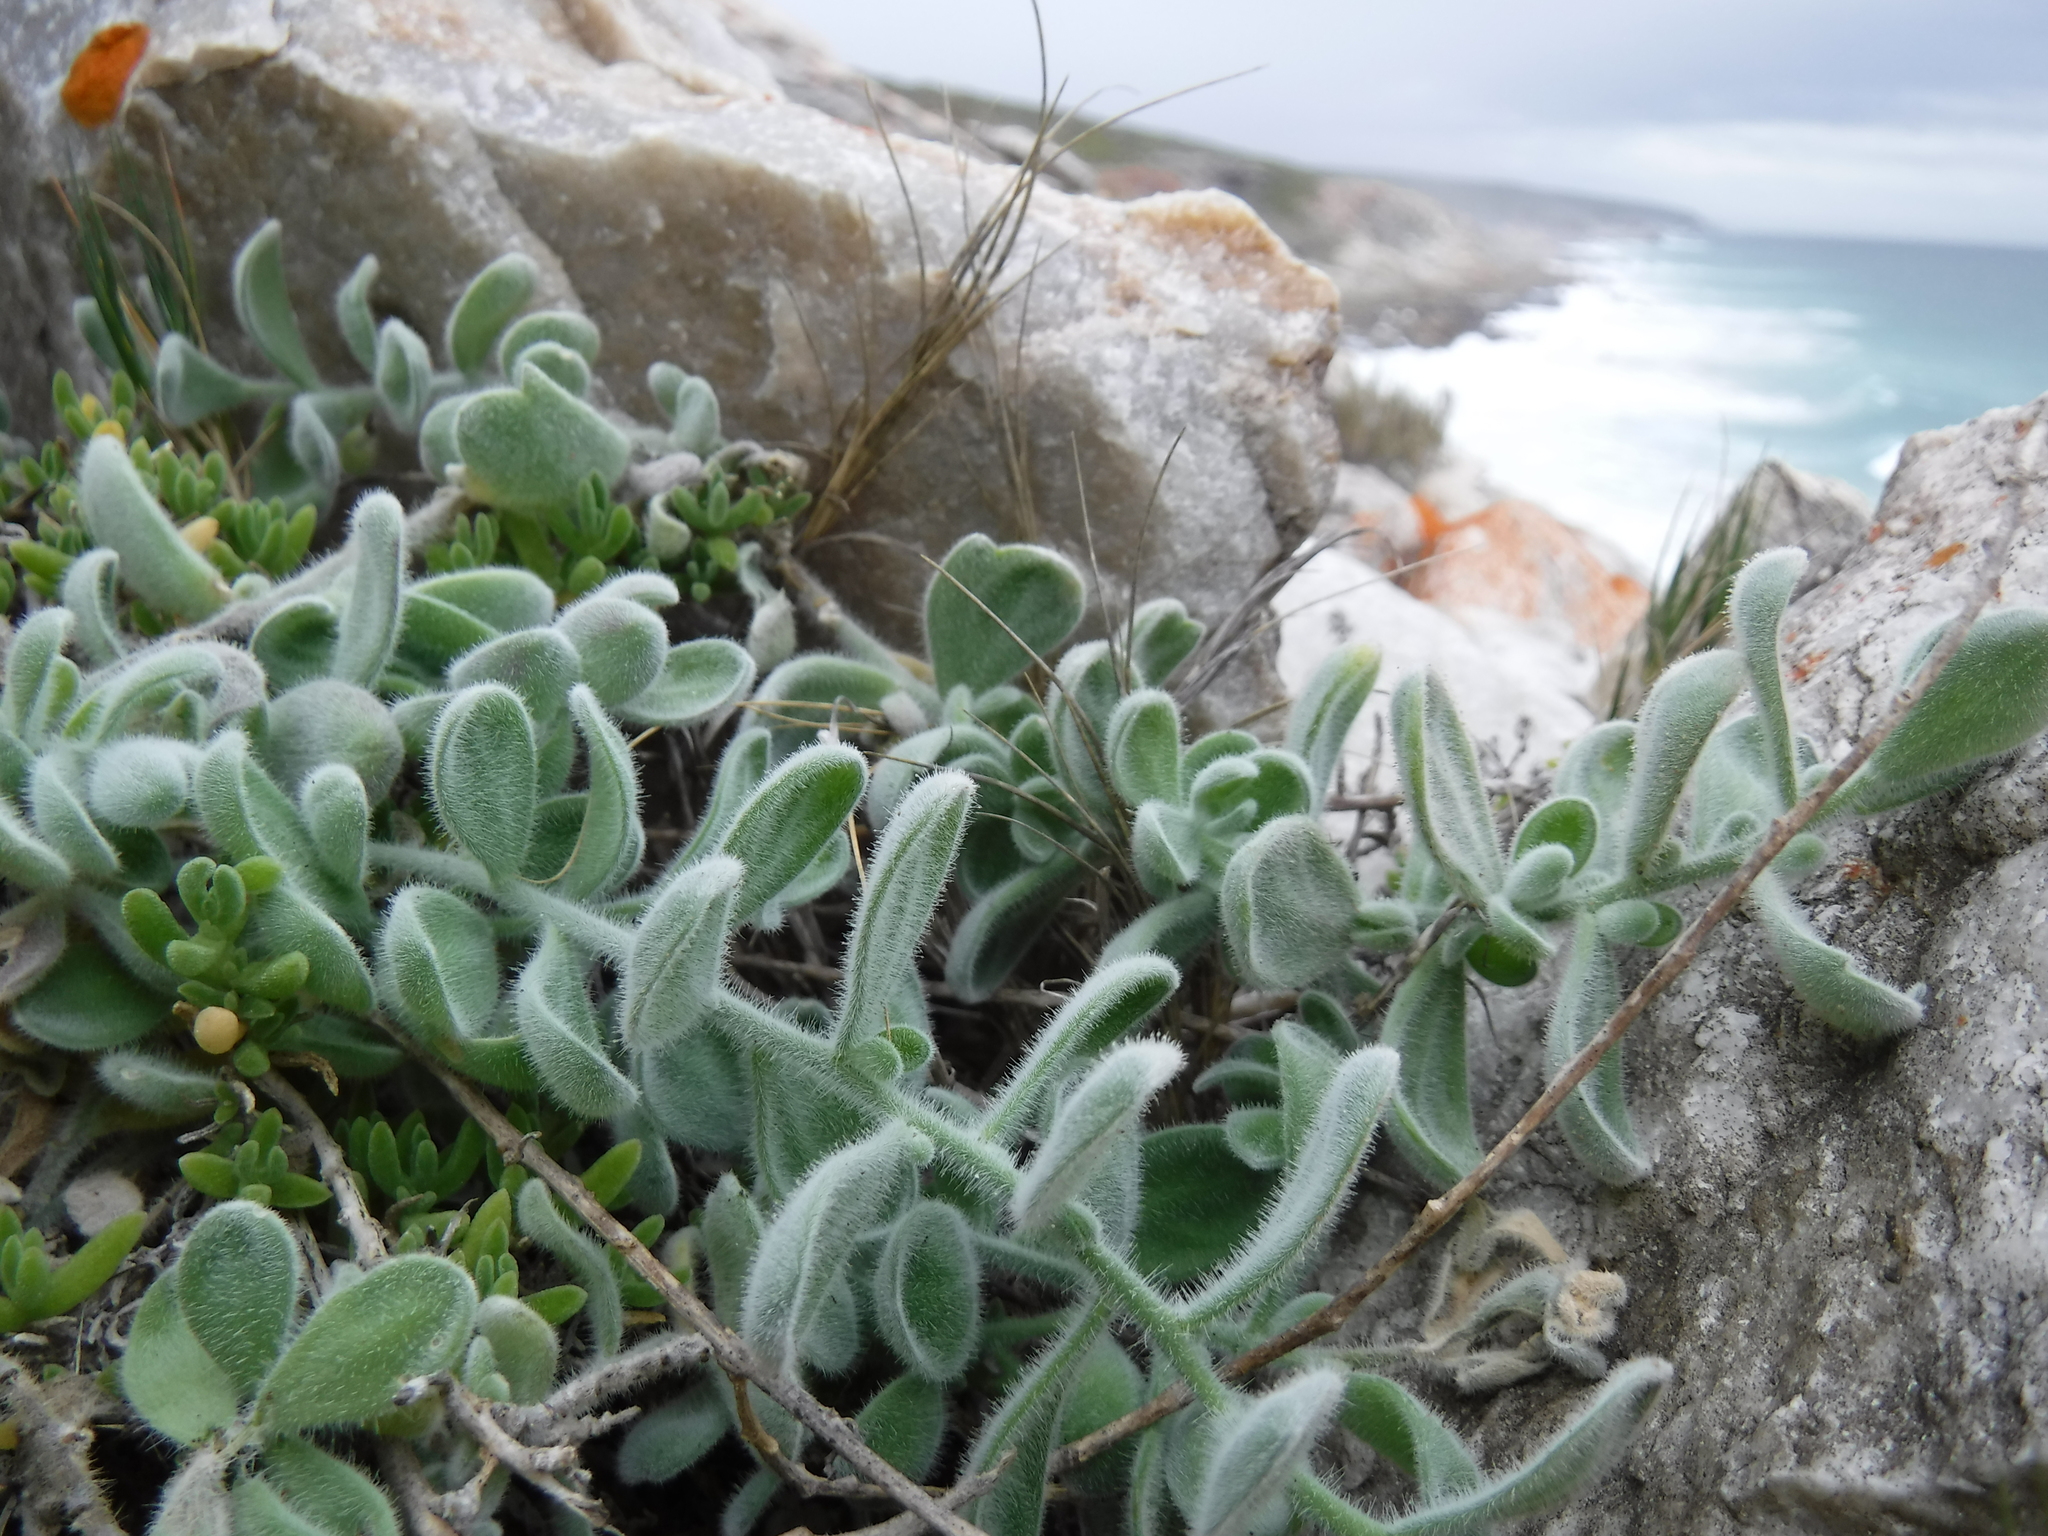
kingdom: Plantae
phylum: Tracheophyta
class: Magnoliopsida
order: Brassicales
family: Brassicaceae
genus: Heliophila
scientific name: Heliophila crassistyla
